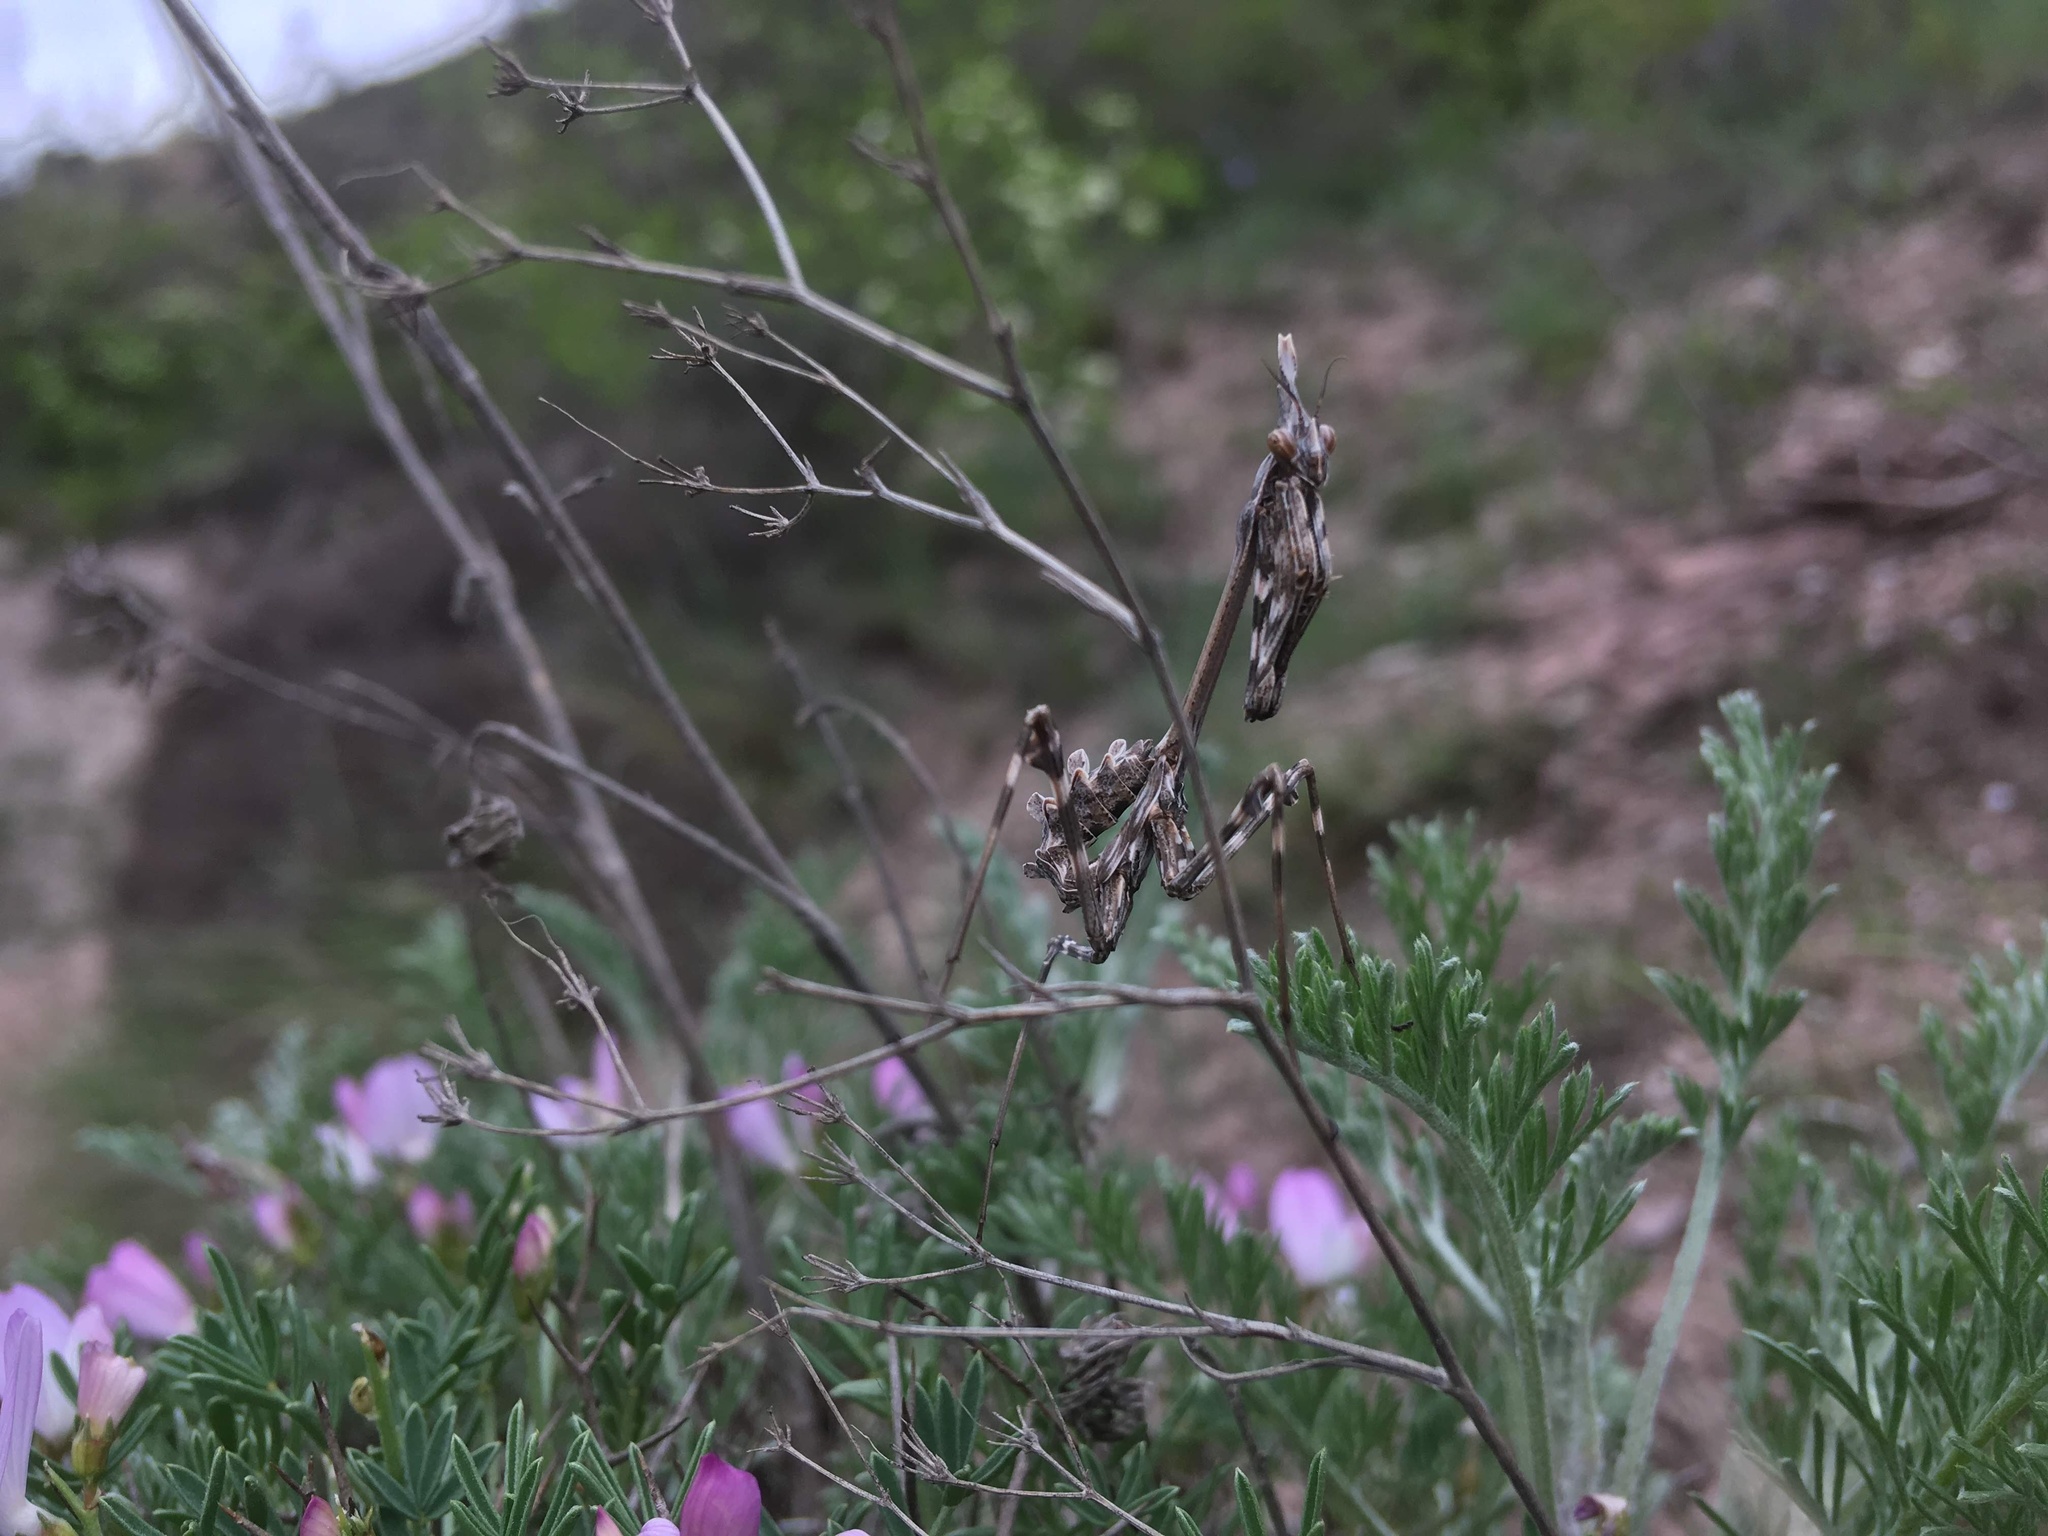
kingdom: Animalia
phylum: Arthropoda
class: Insecta
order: Mantodea
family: Empusidae
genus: Empusa
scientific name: Empusa pennicornis
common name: Conehead mantis
